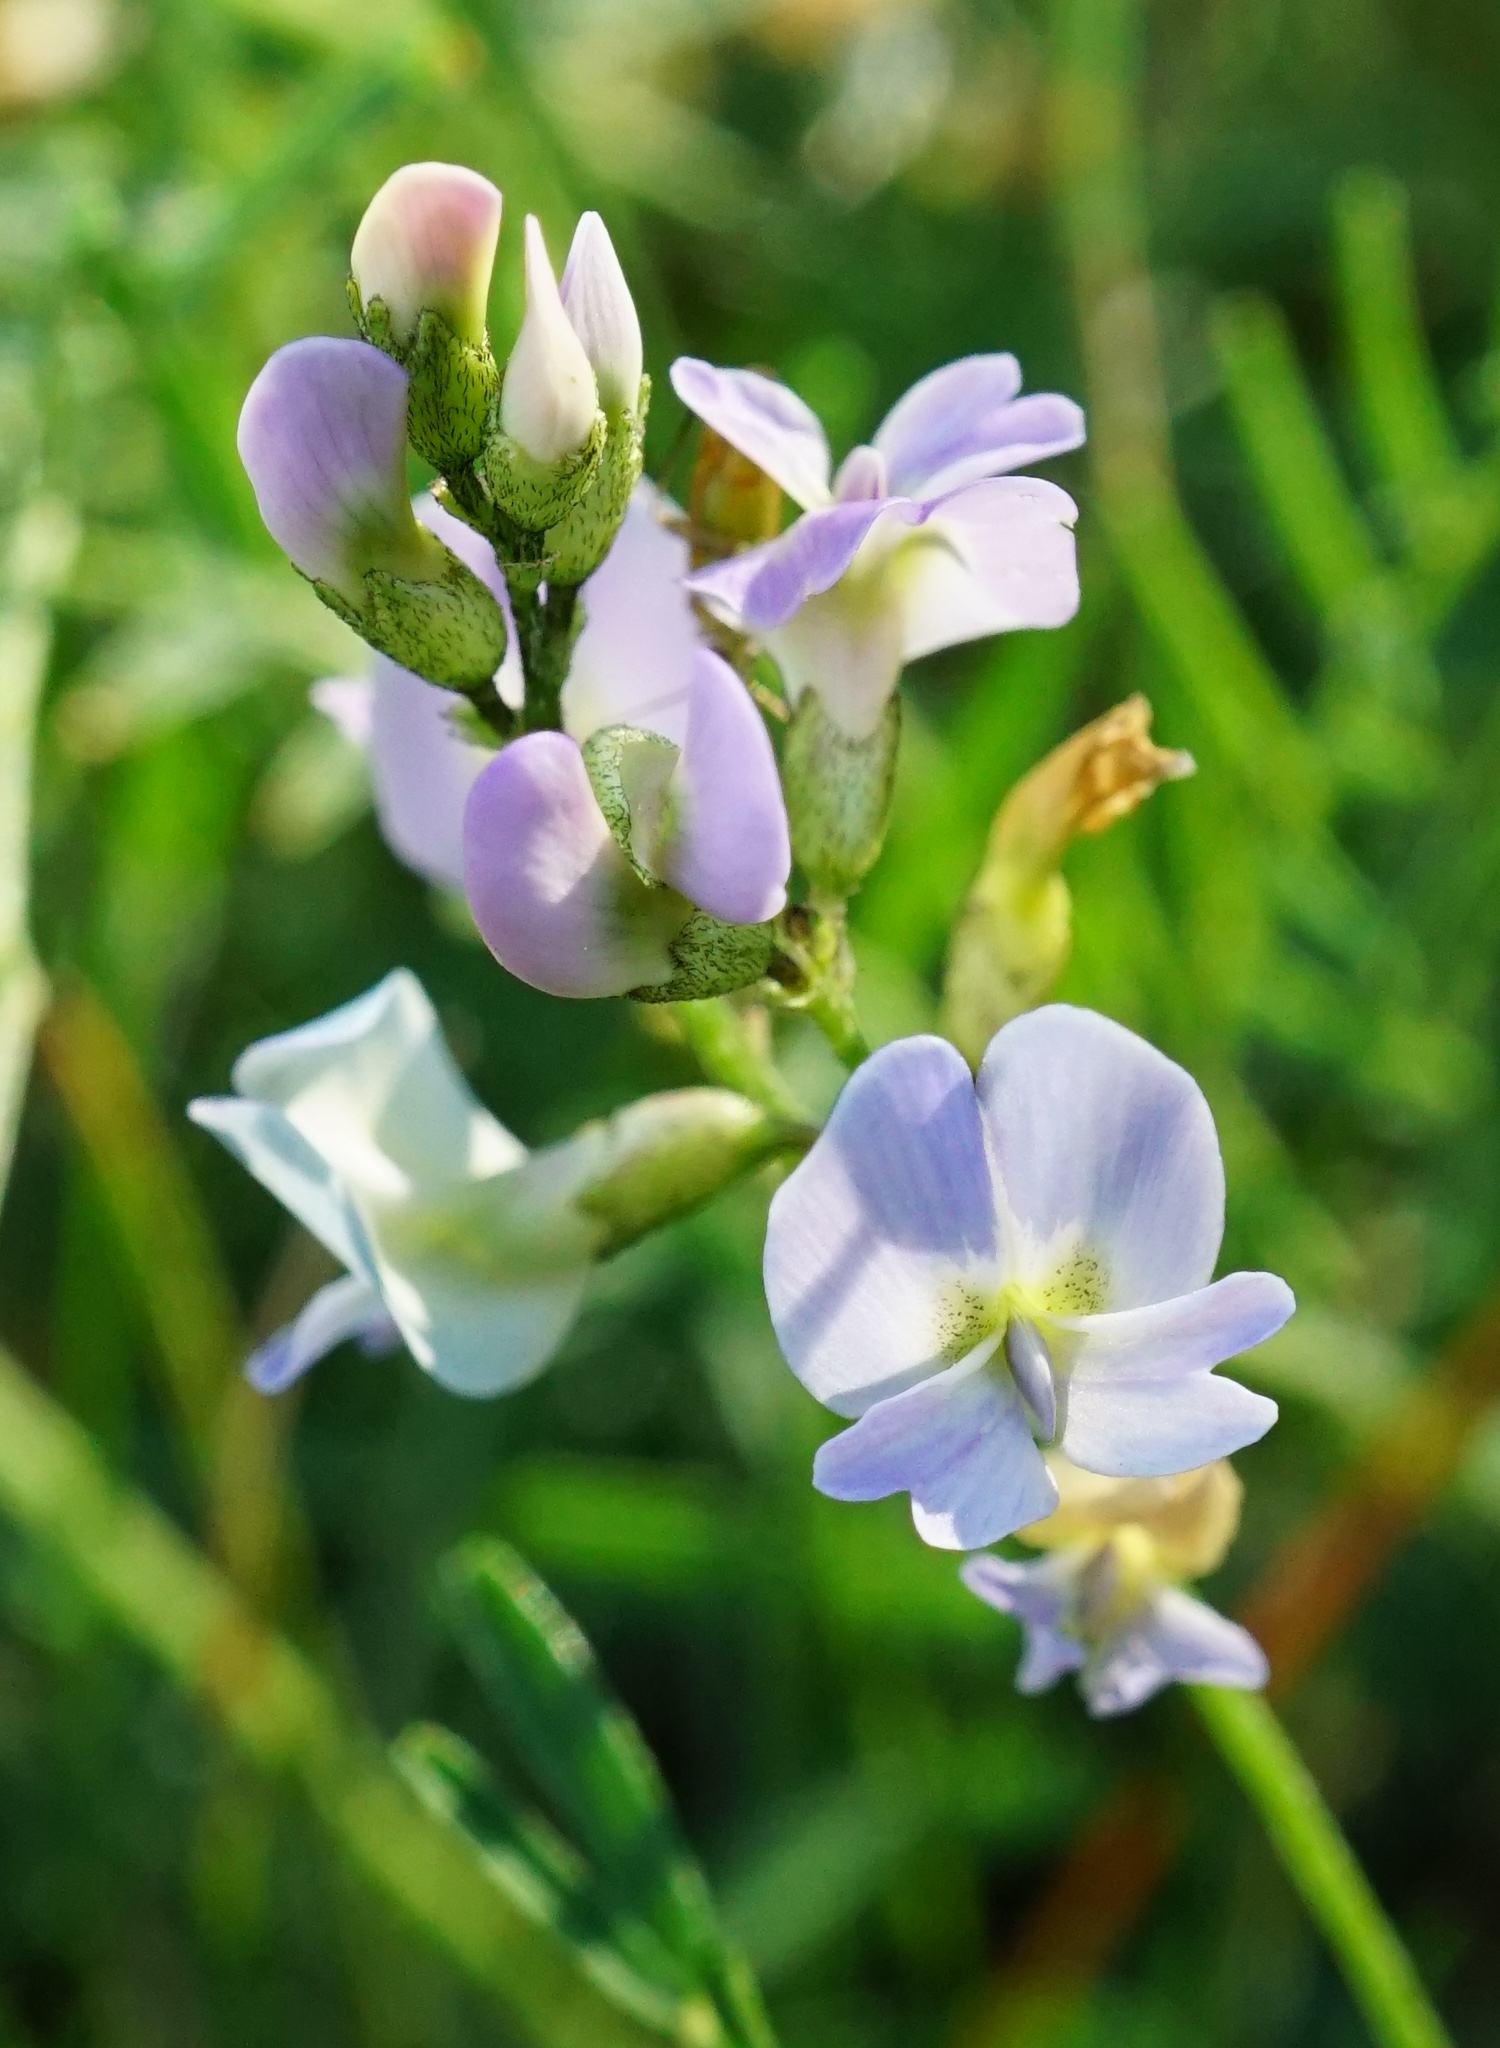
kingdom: Plantae
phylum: Tracheophyta
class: Magnoliopsida
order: Fabales
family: Fabaceae
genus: Astragalus
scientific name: Astragalus austriacus
